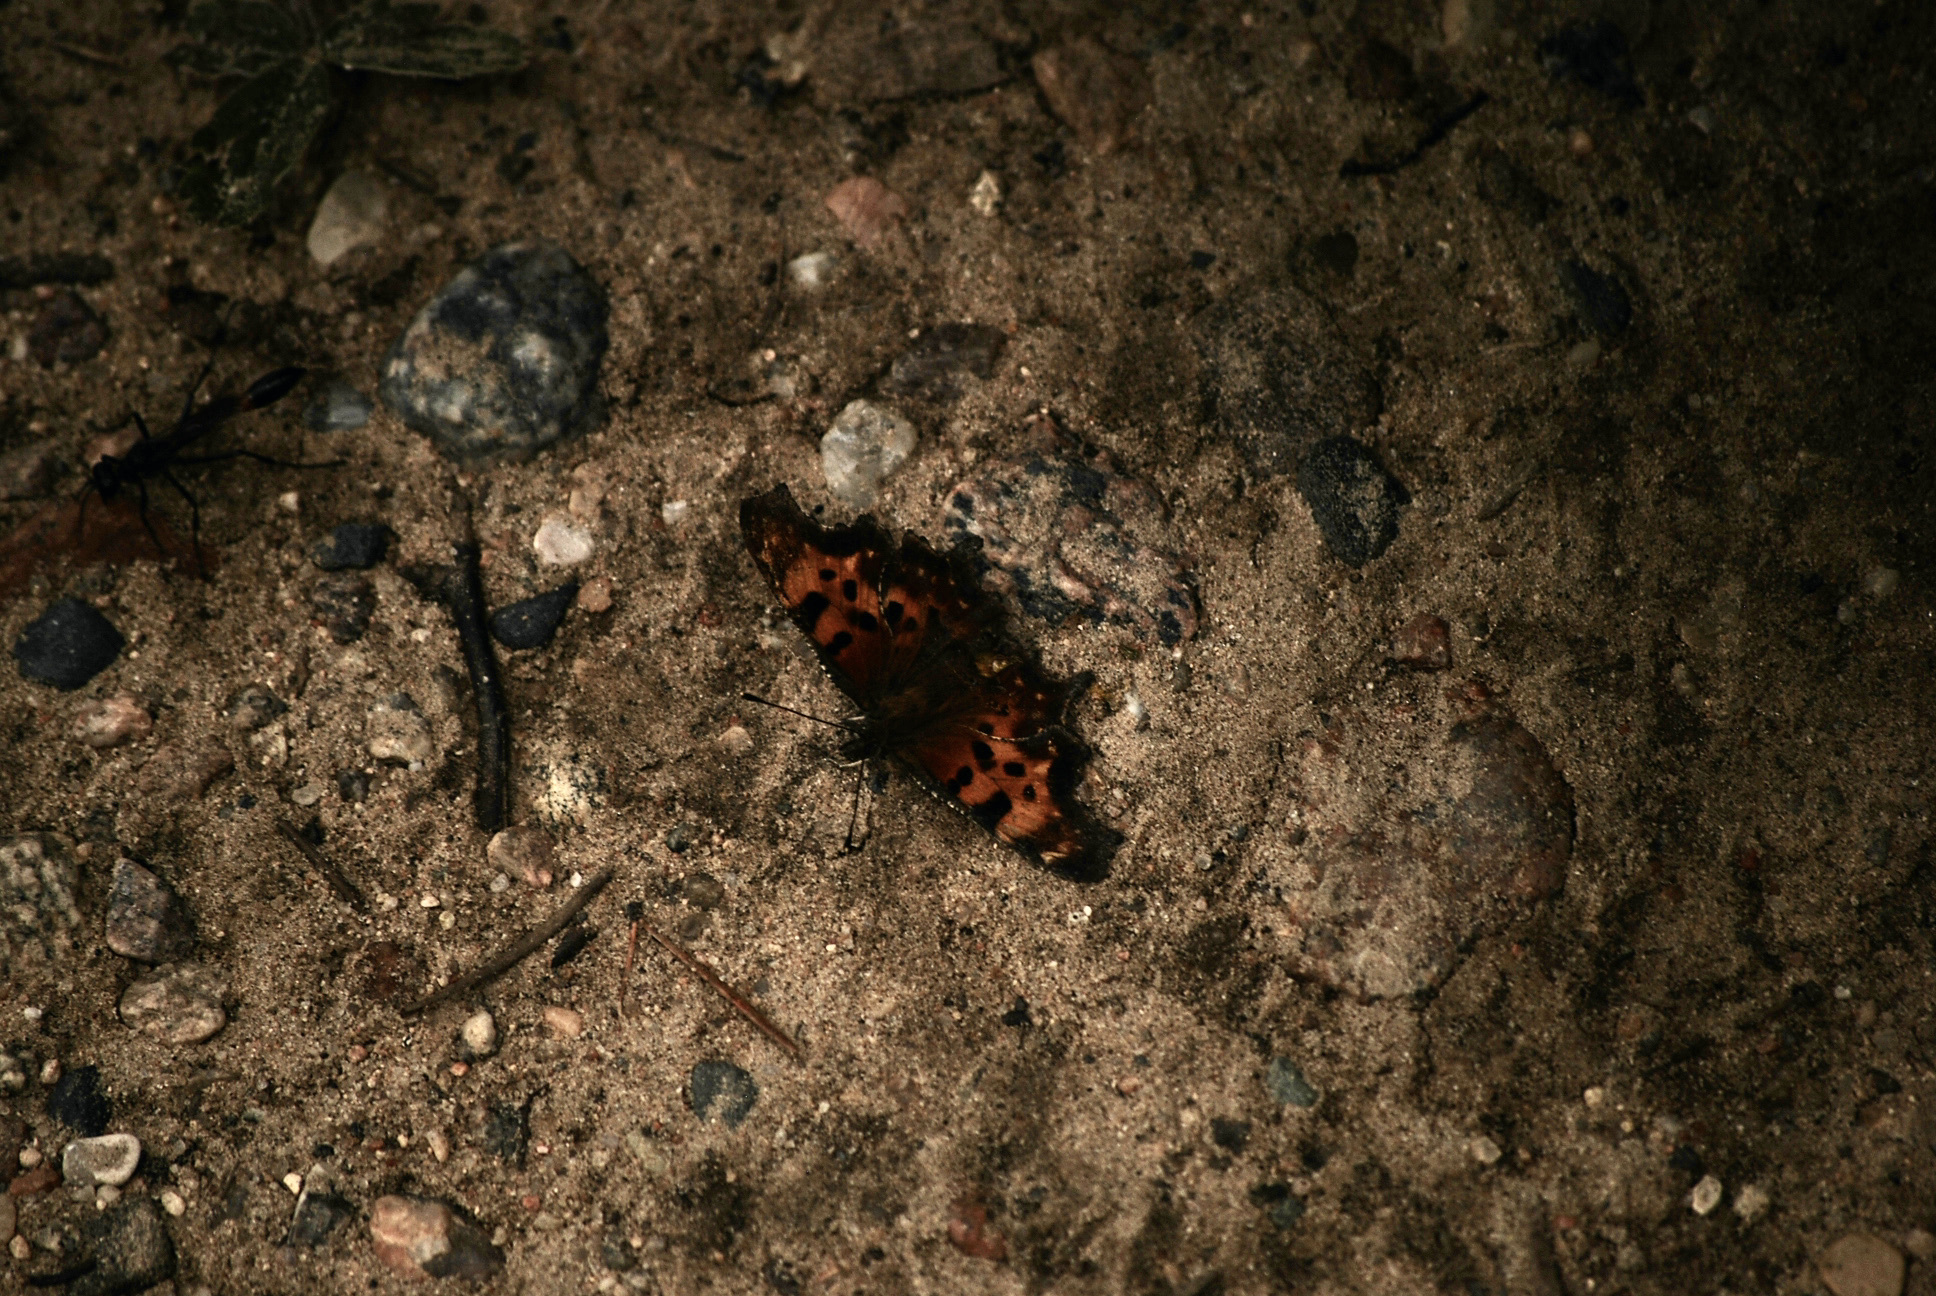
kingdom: Animalia
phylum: Arthropoda
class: Insecta
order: Lepidoptera
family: Nymphalidae
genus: Polygonia
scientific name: Polygonia faunus
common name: Green comma
